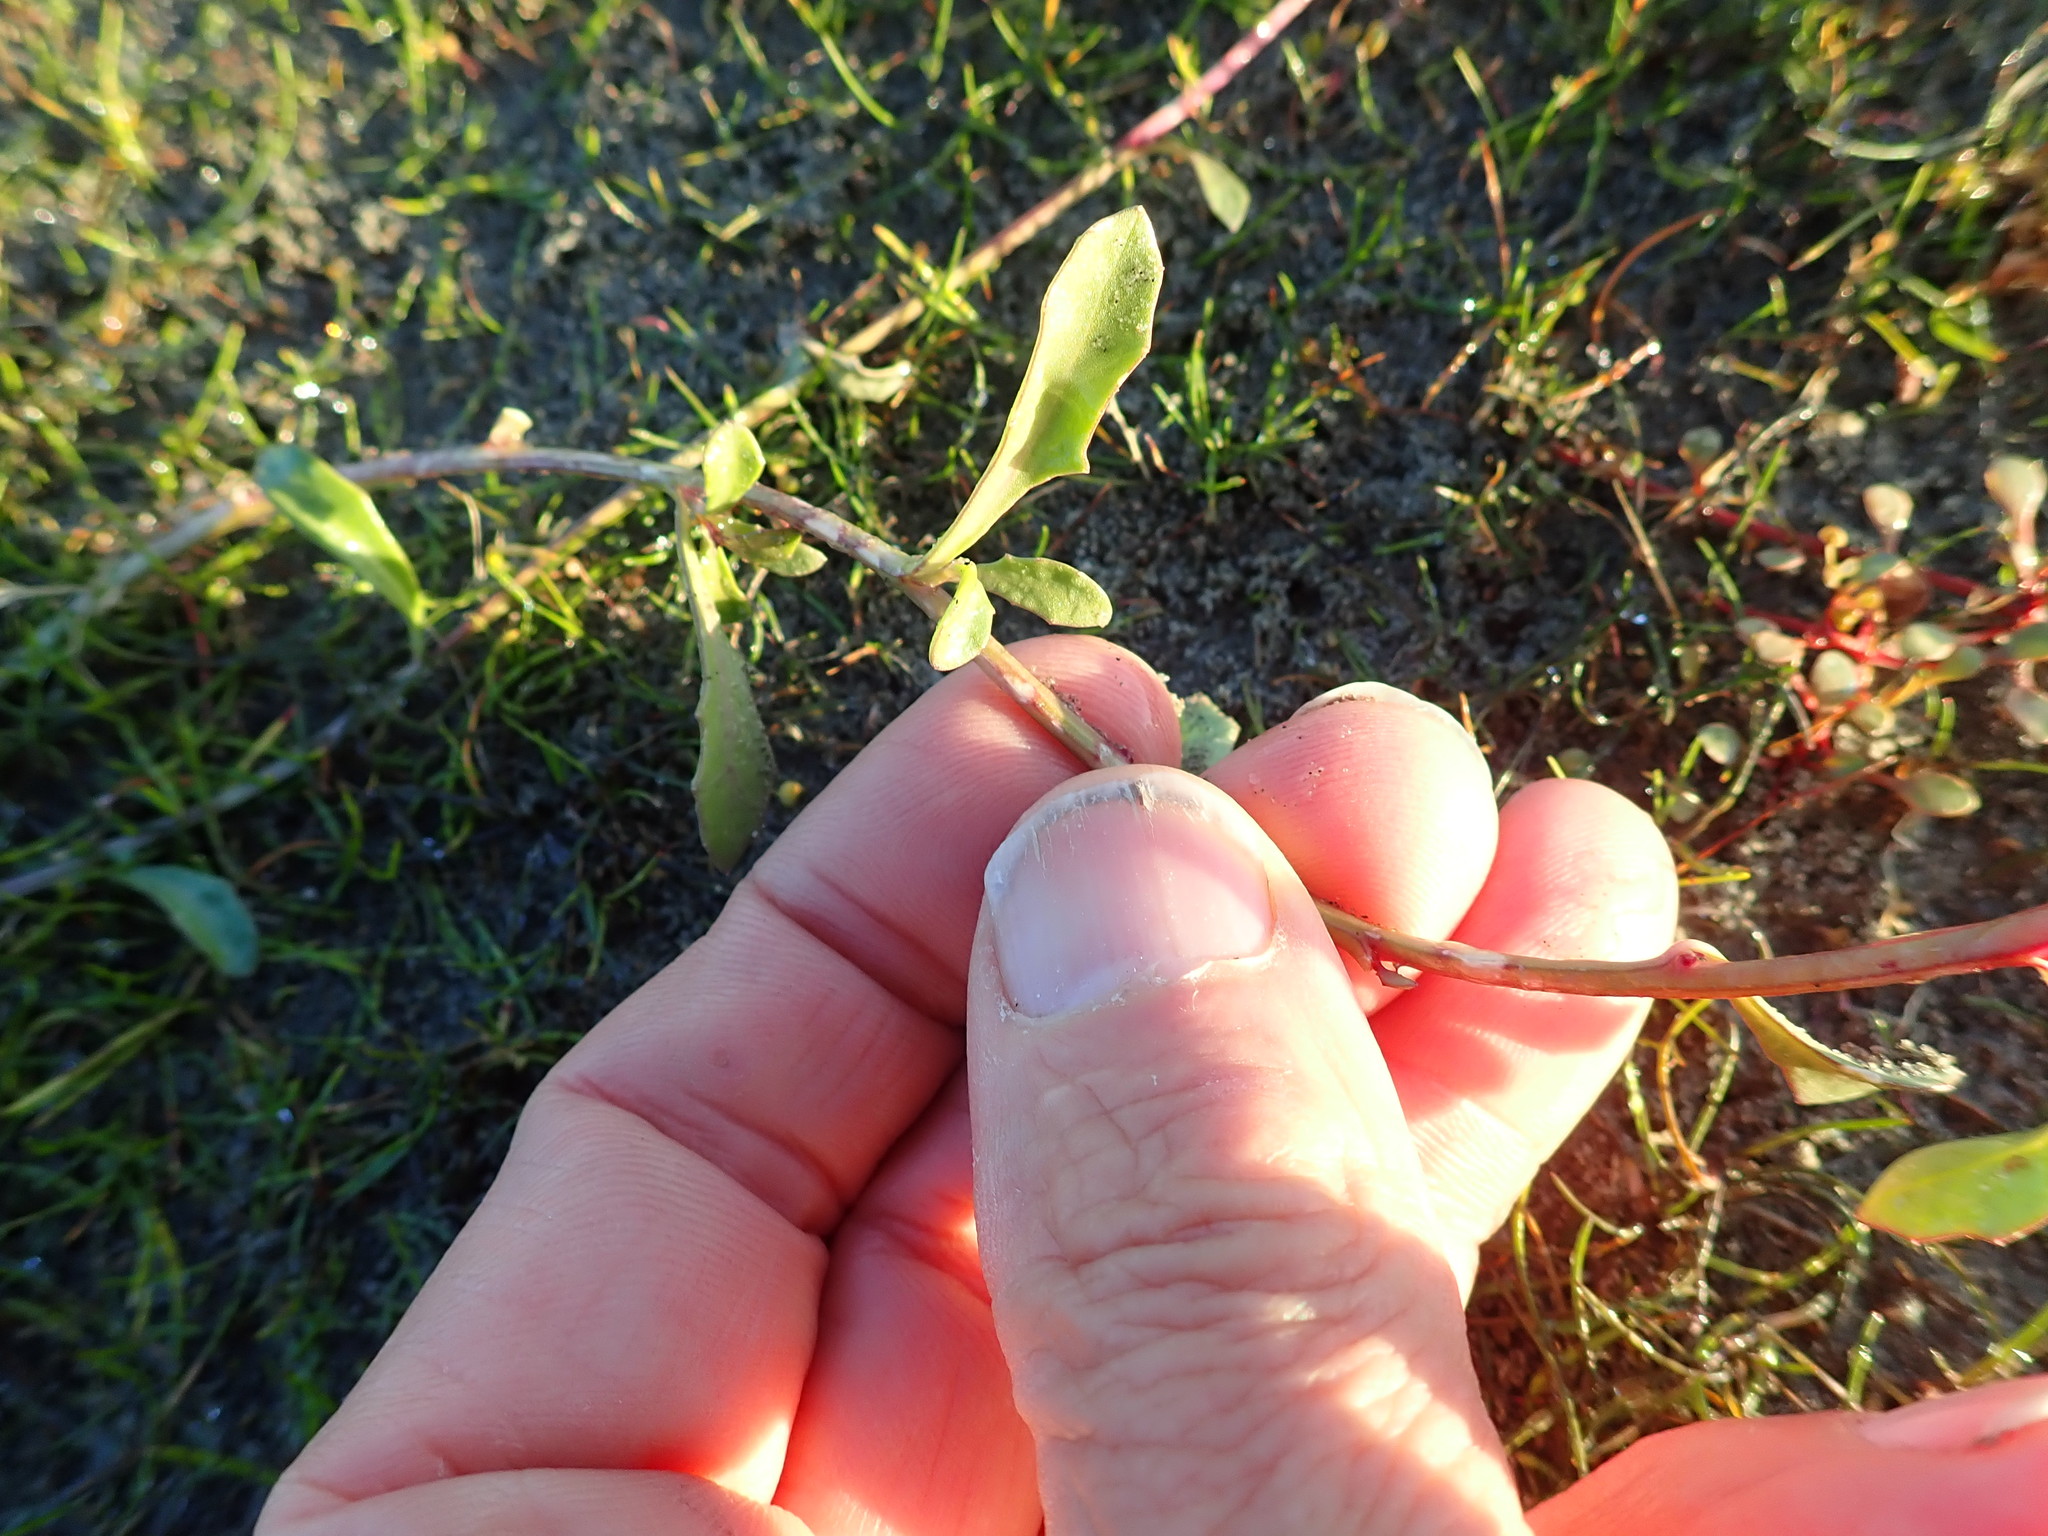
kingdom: Plantae
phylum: Tracheophyta
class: Magnoliopsida
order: Asterales
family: Campanulaceae
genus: Lobelia
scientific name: Lobelia anceps
